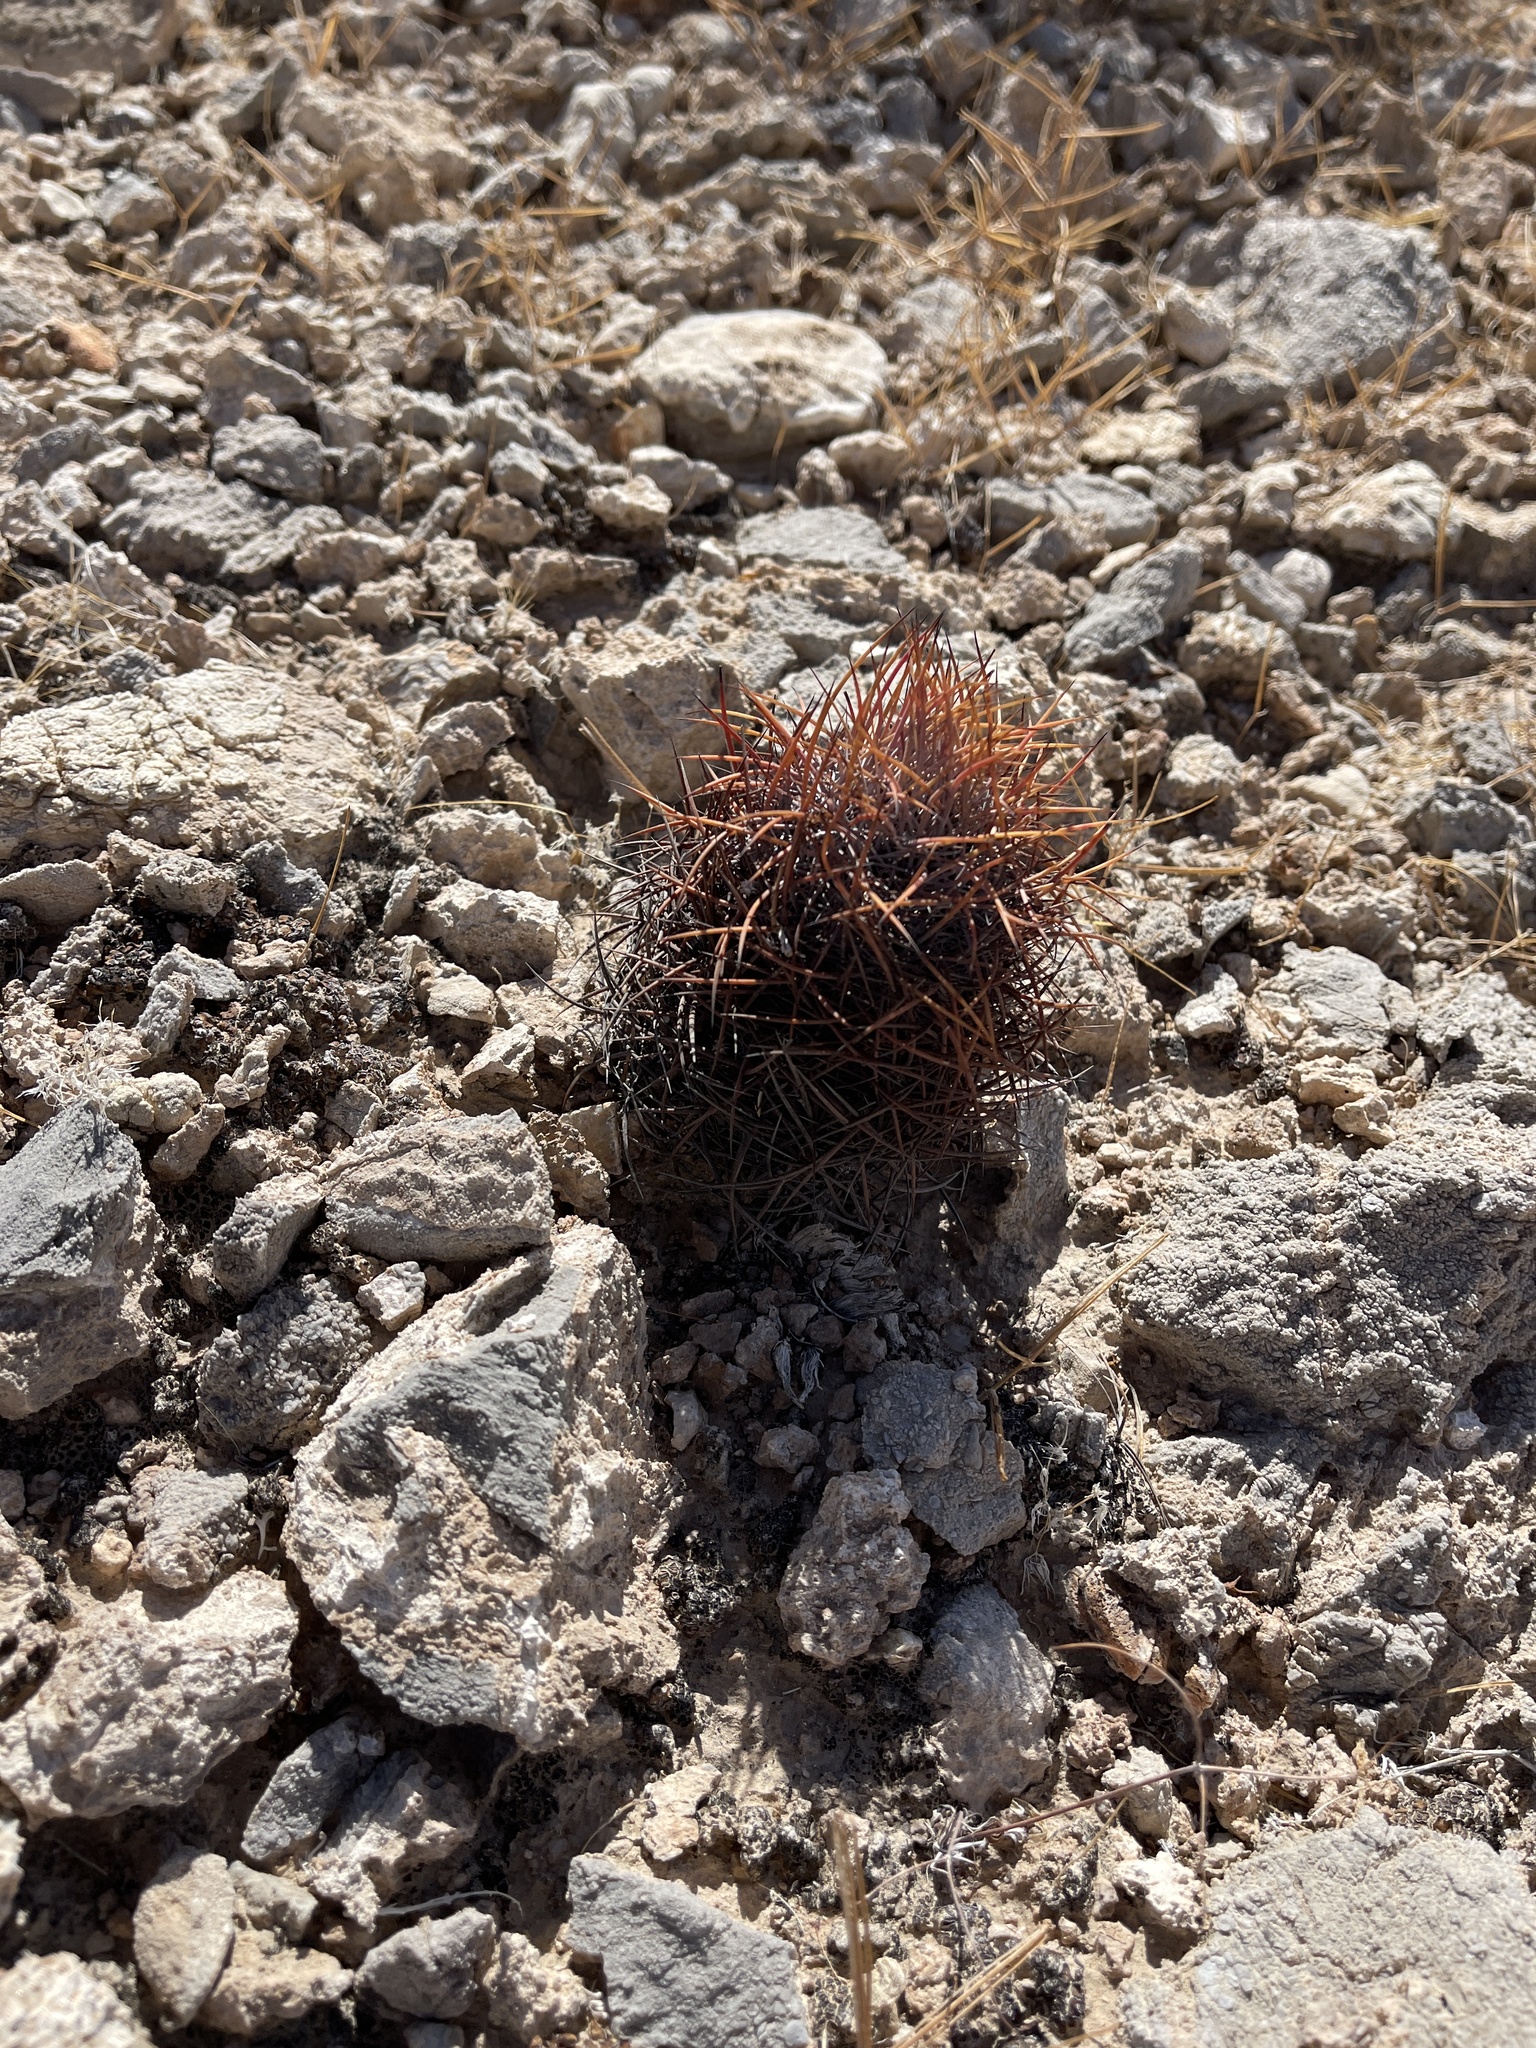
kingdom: Plantae
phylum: Tracheophyta
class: Magnoliopsida
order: Caryophyllales
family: Cactaceae
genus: Sclerocactus
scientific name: Sclerocactus johnsonii
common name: Eight-spine fishhook cactus
